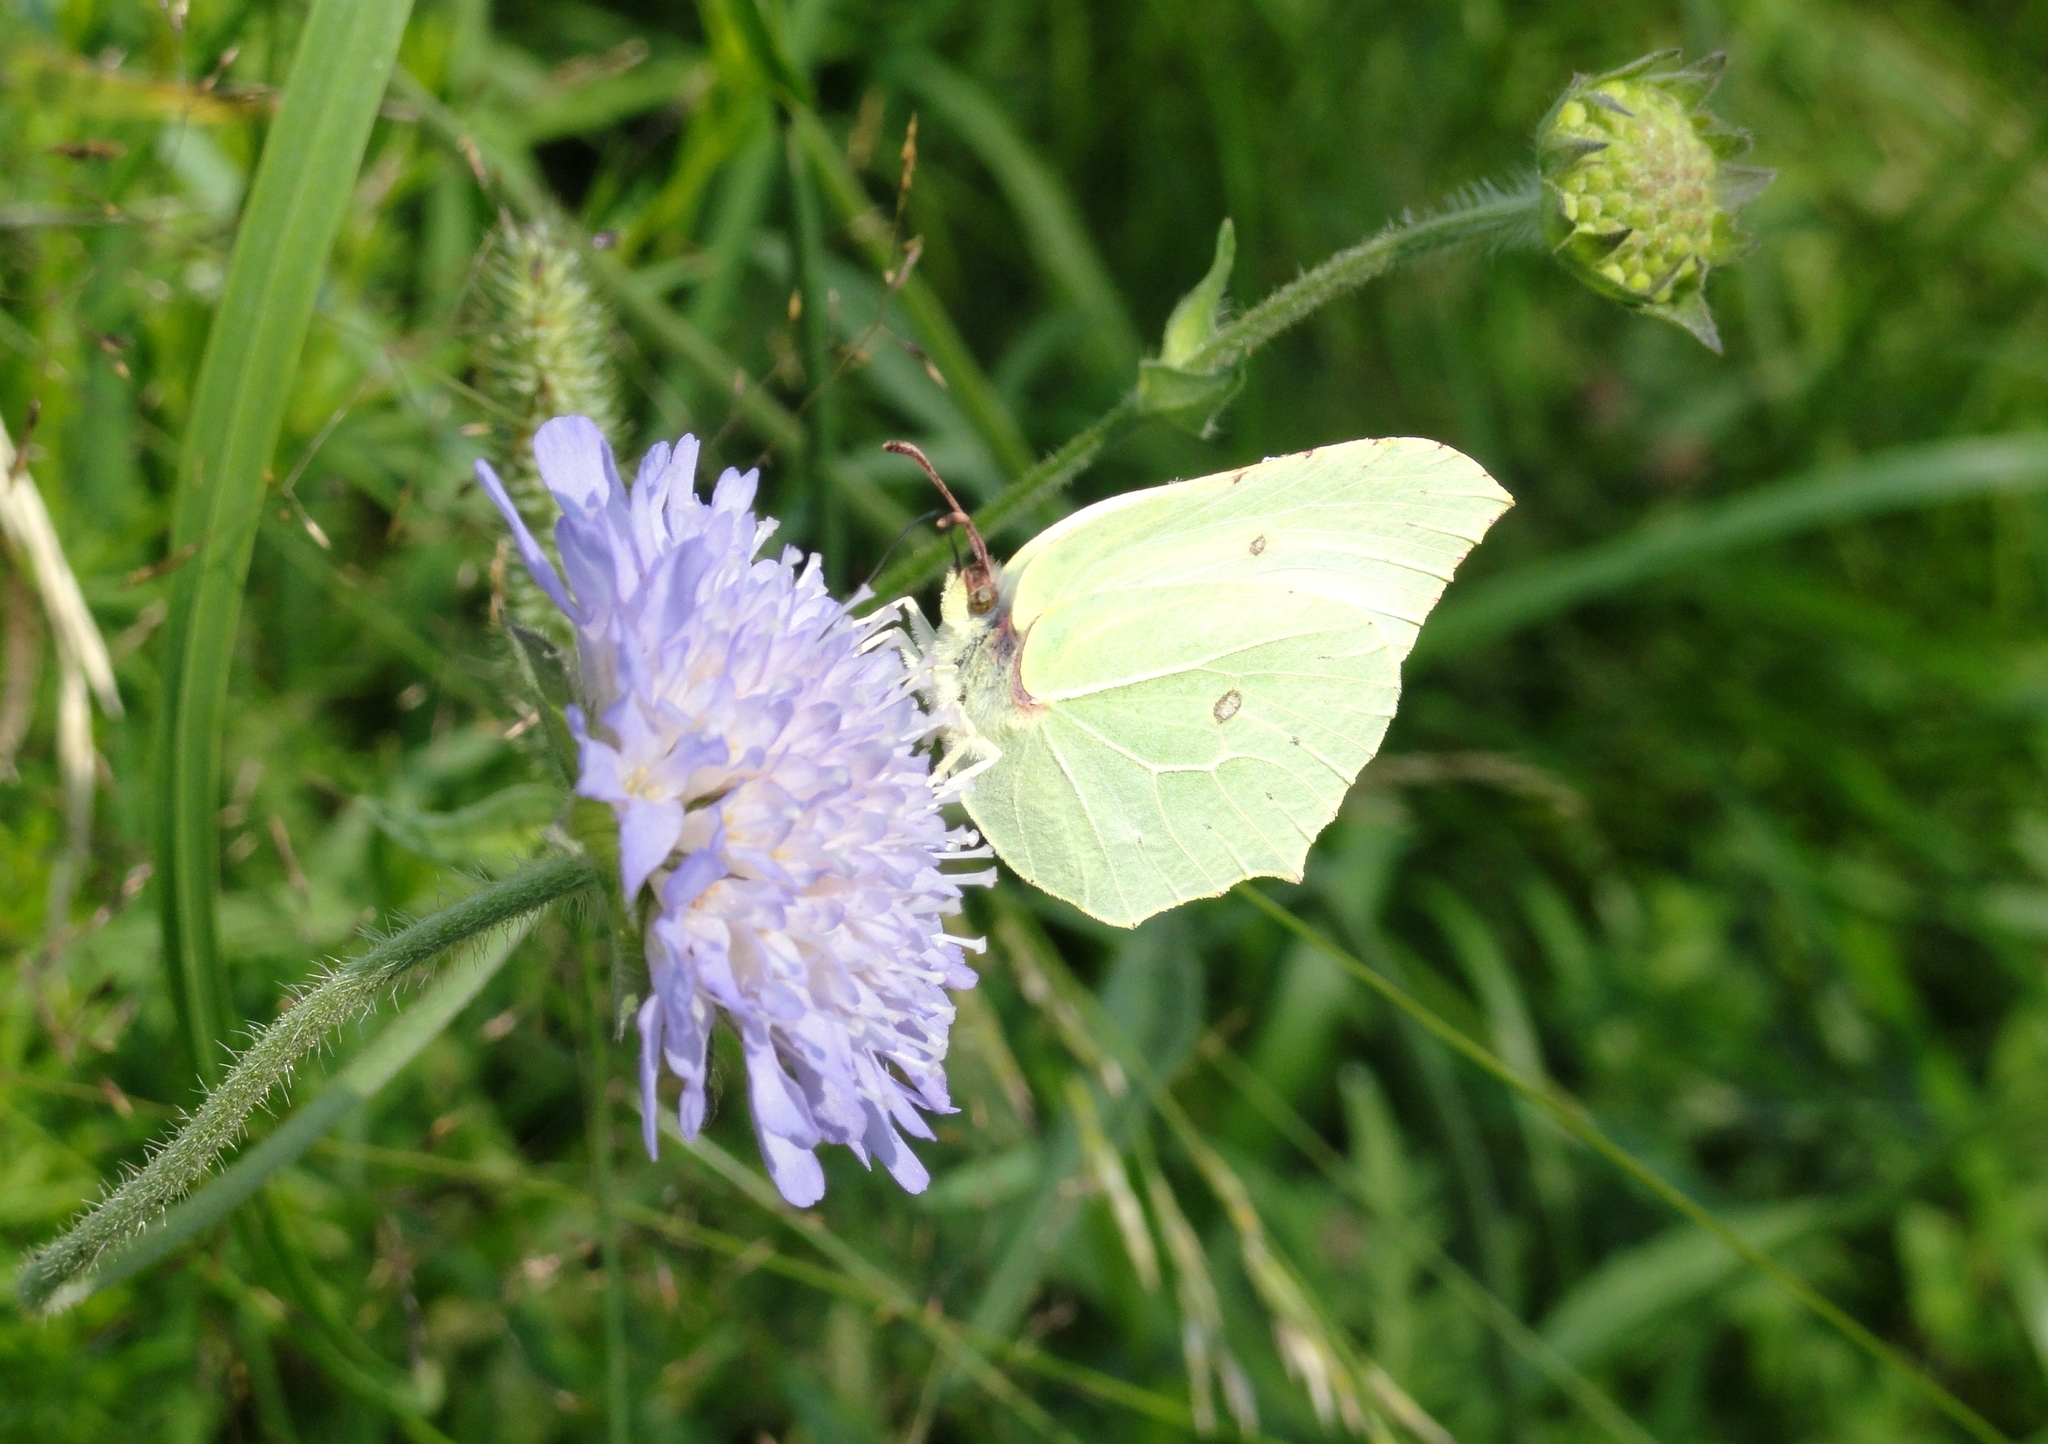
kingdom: Animalia
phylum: Arthropoda
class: Insecta
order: Lepidoptera
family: Pieridae
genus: Gonepteryx
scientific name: Gonepteryx rhamni
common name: Brimstone
